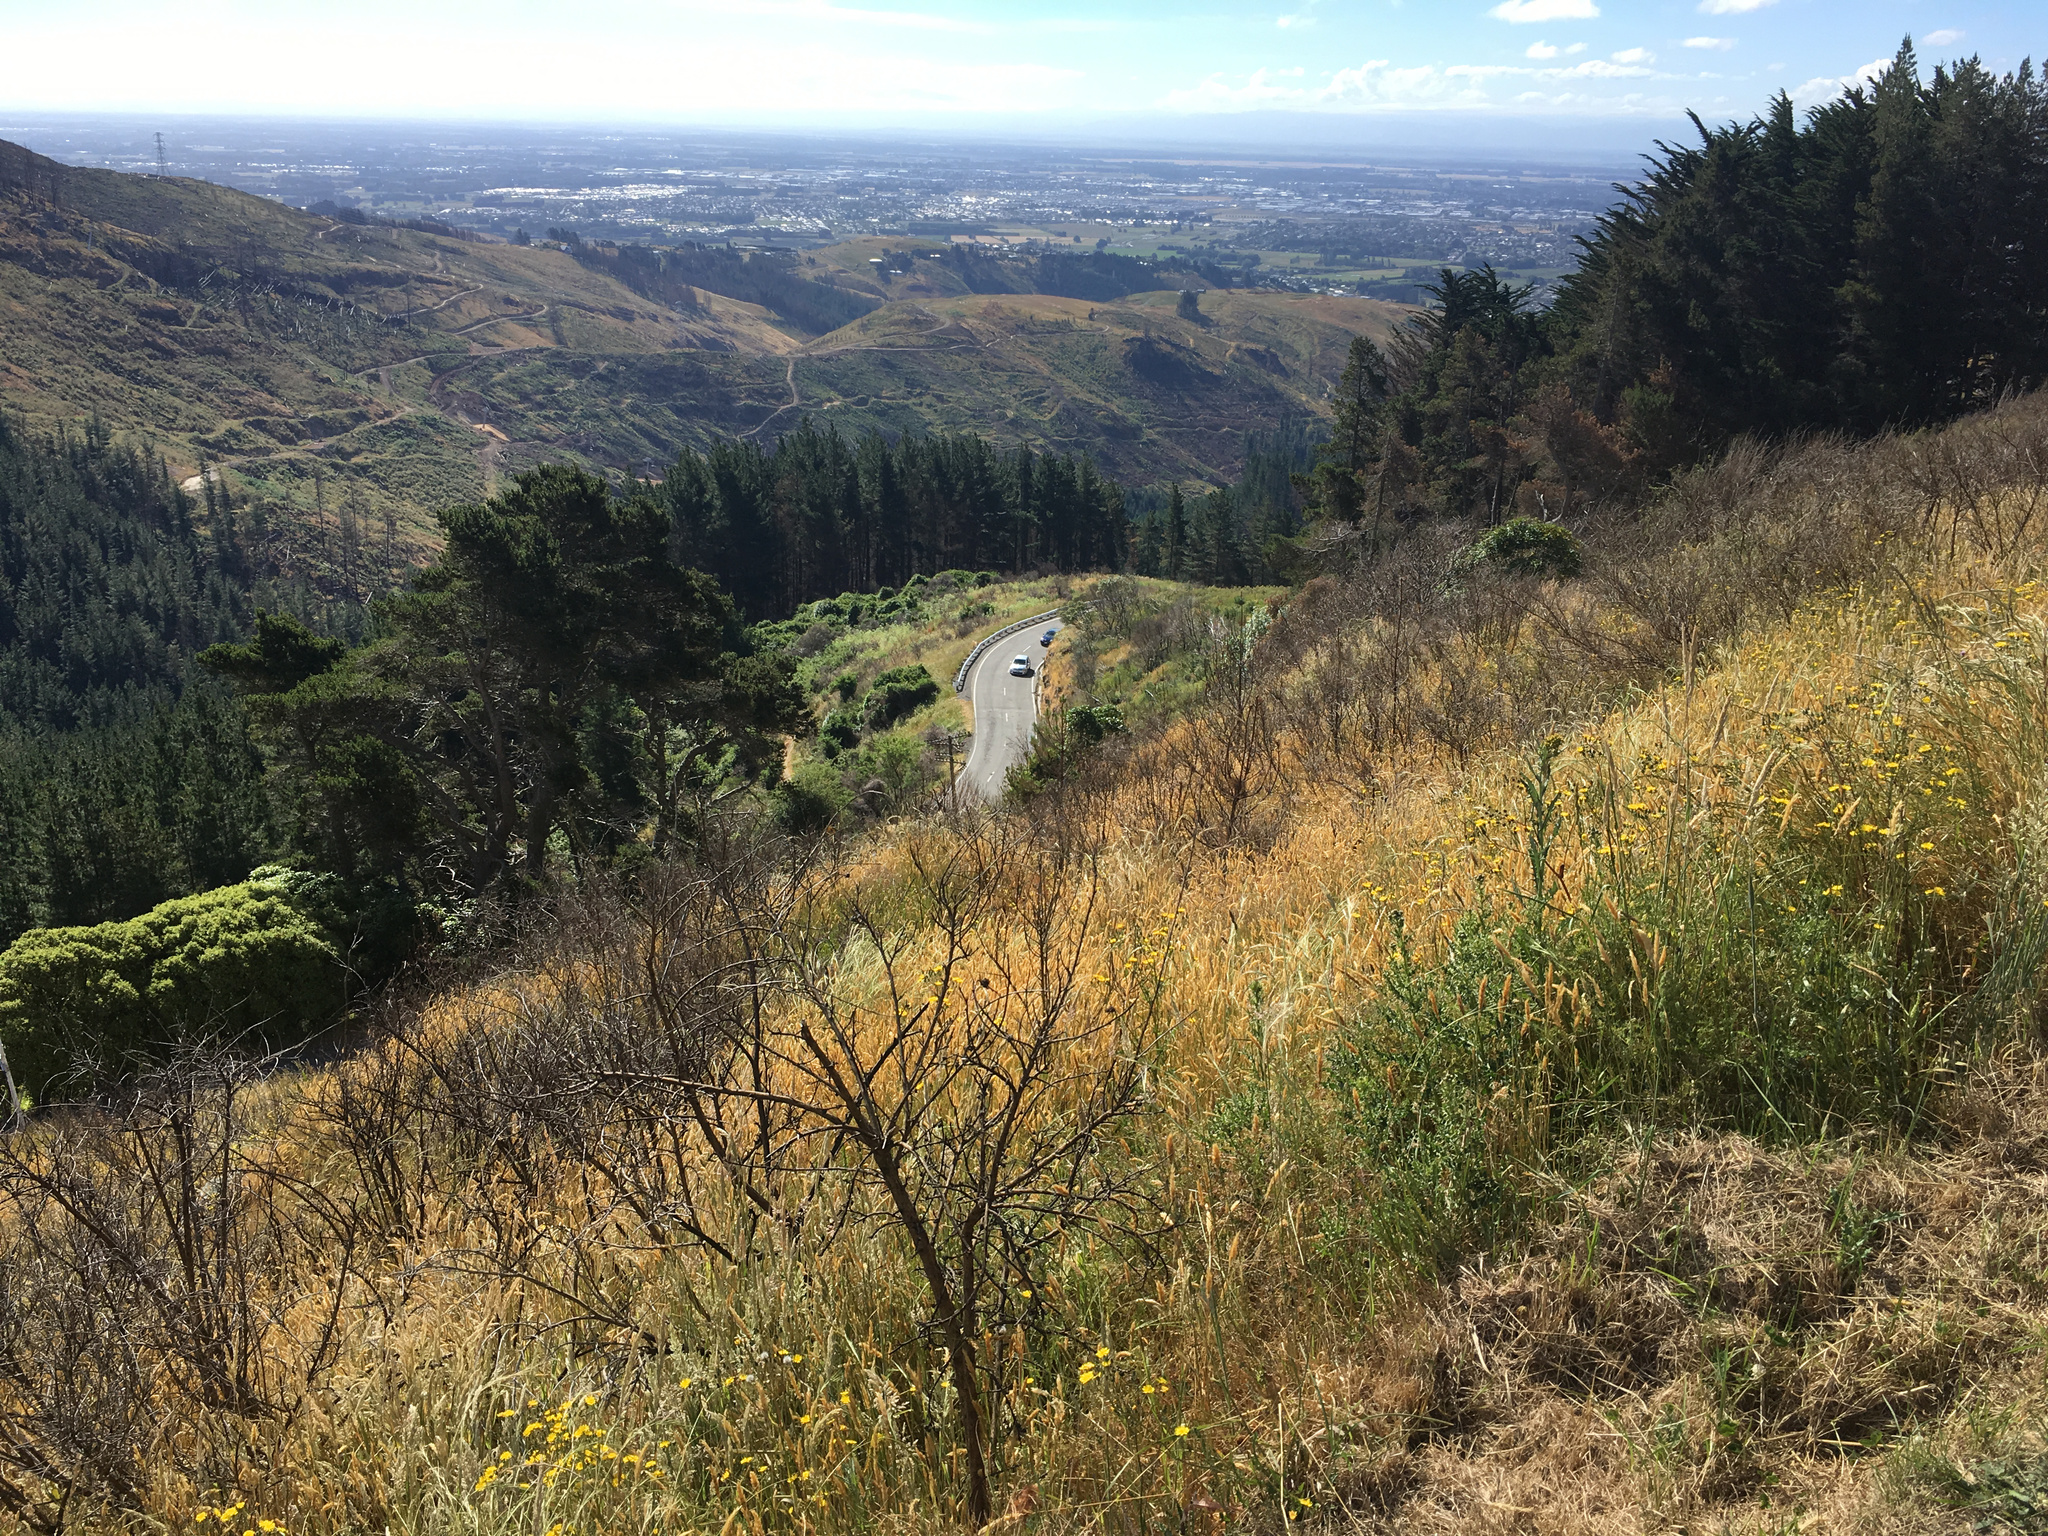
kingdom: Plantae
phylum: Tracheophyta
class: Liliopsida
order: Poales
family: Poaceae
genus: Holcus
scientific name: Holcus lanatus
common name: Yorkshire-fog
